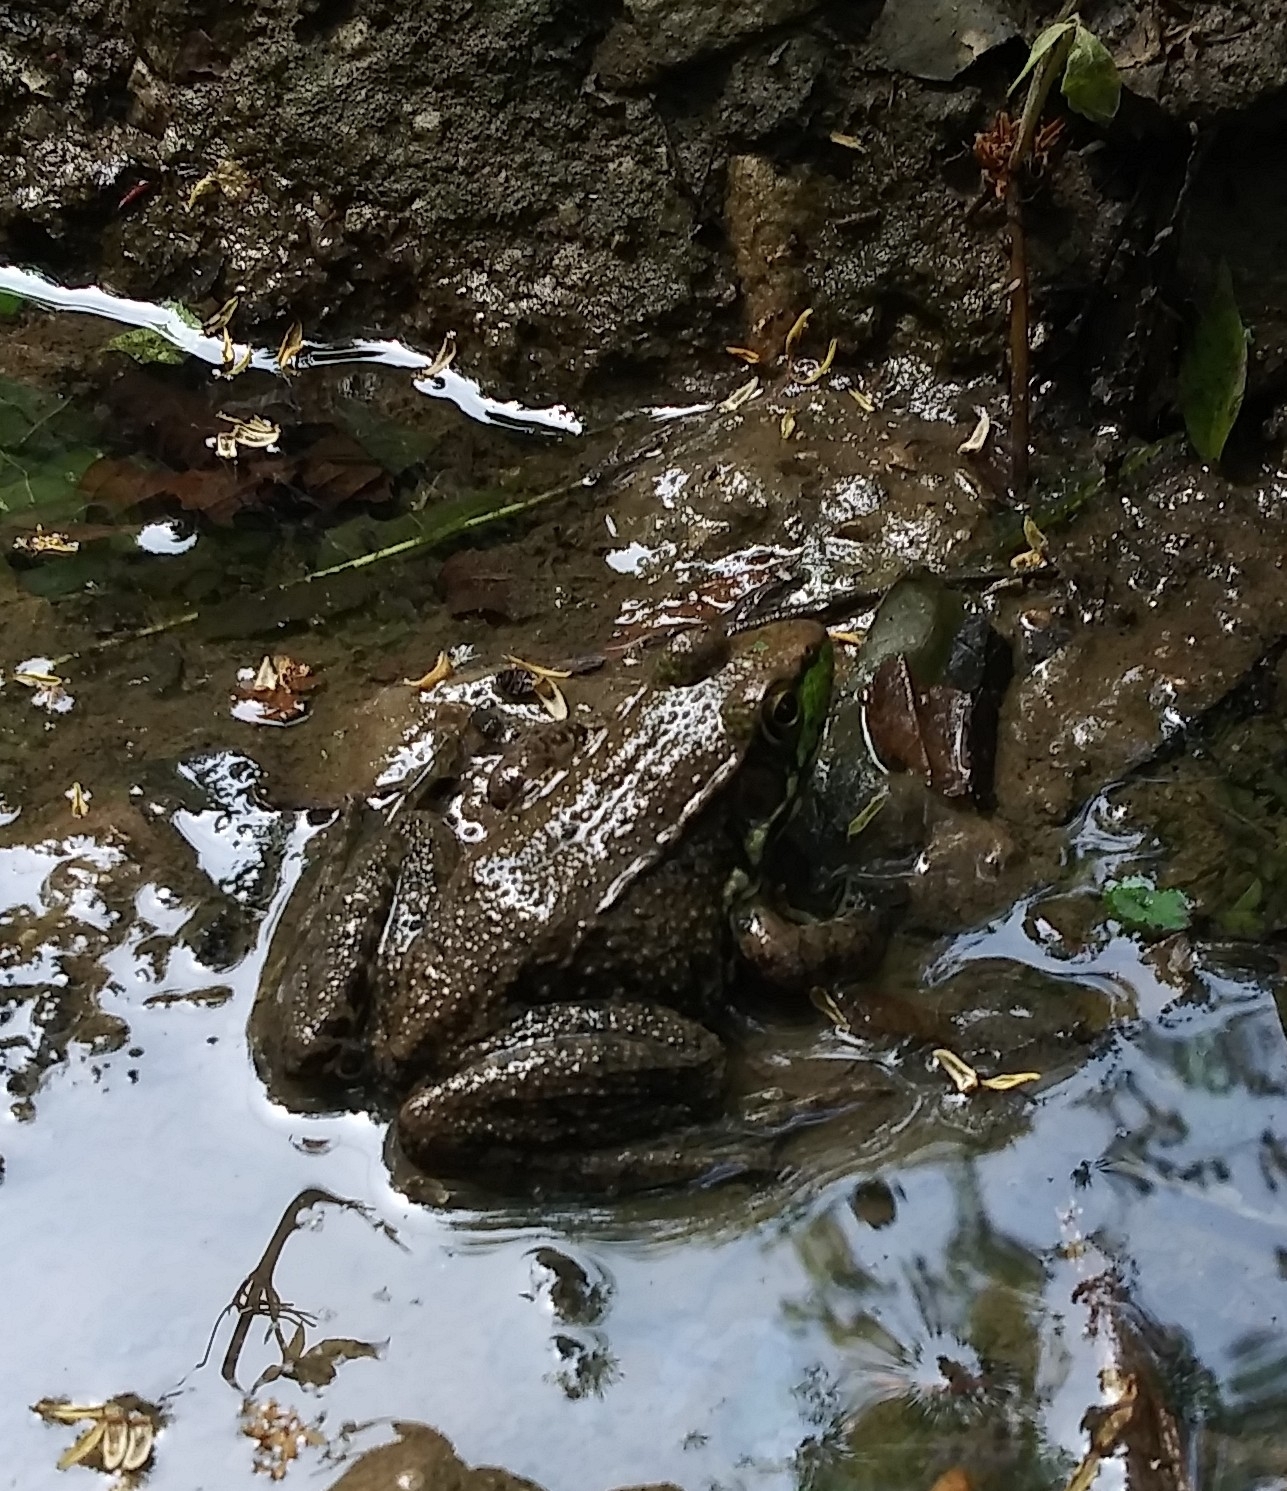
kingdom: Animalia
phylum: Chordata
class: Amphibia
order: Anura
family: Ranidae
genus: Lithobates
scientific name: Lithobates clamitans
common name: Green frog
